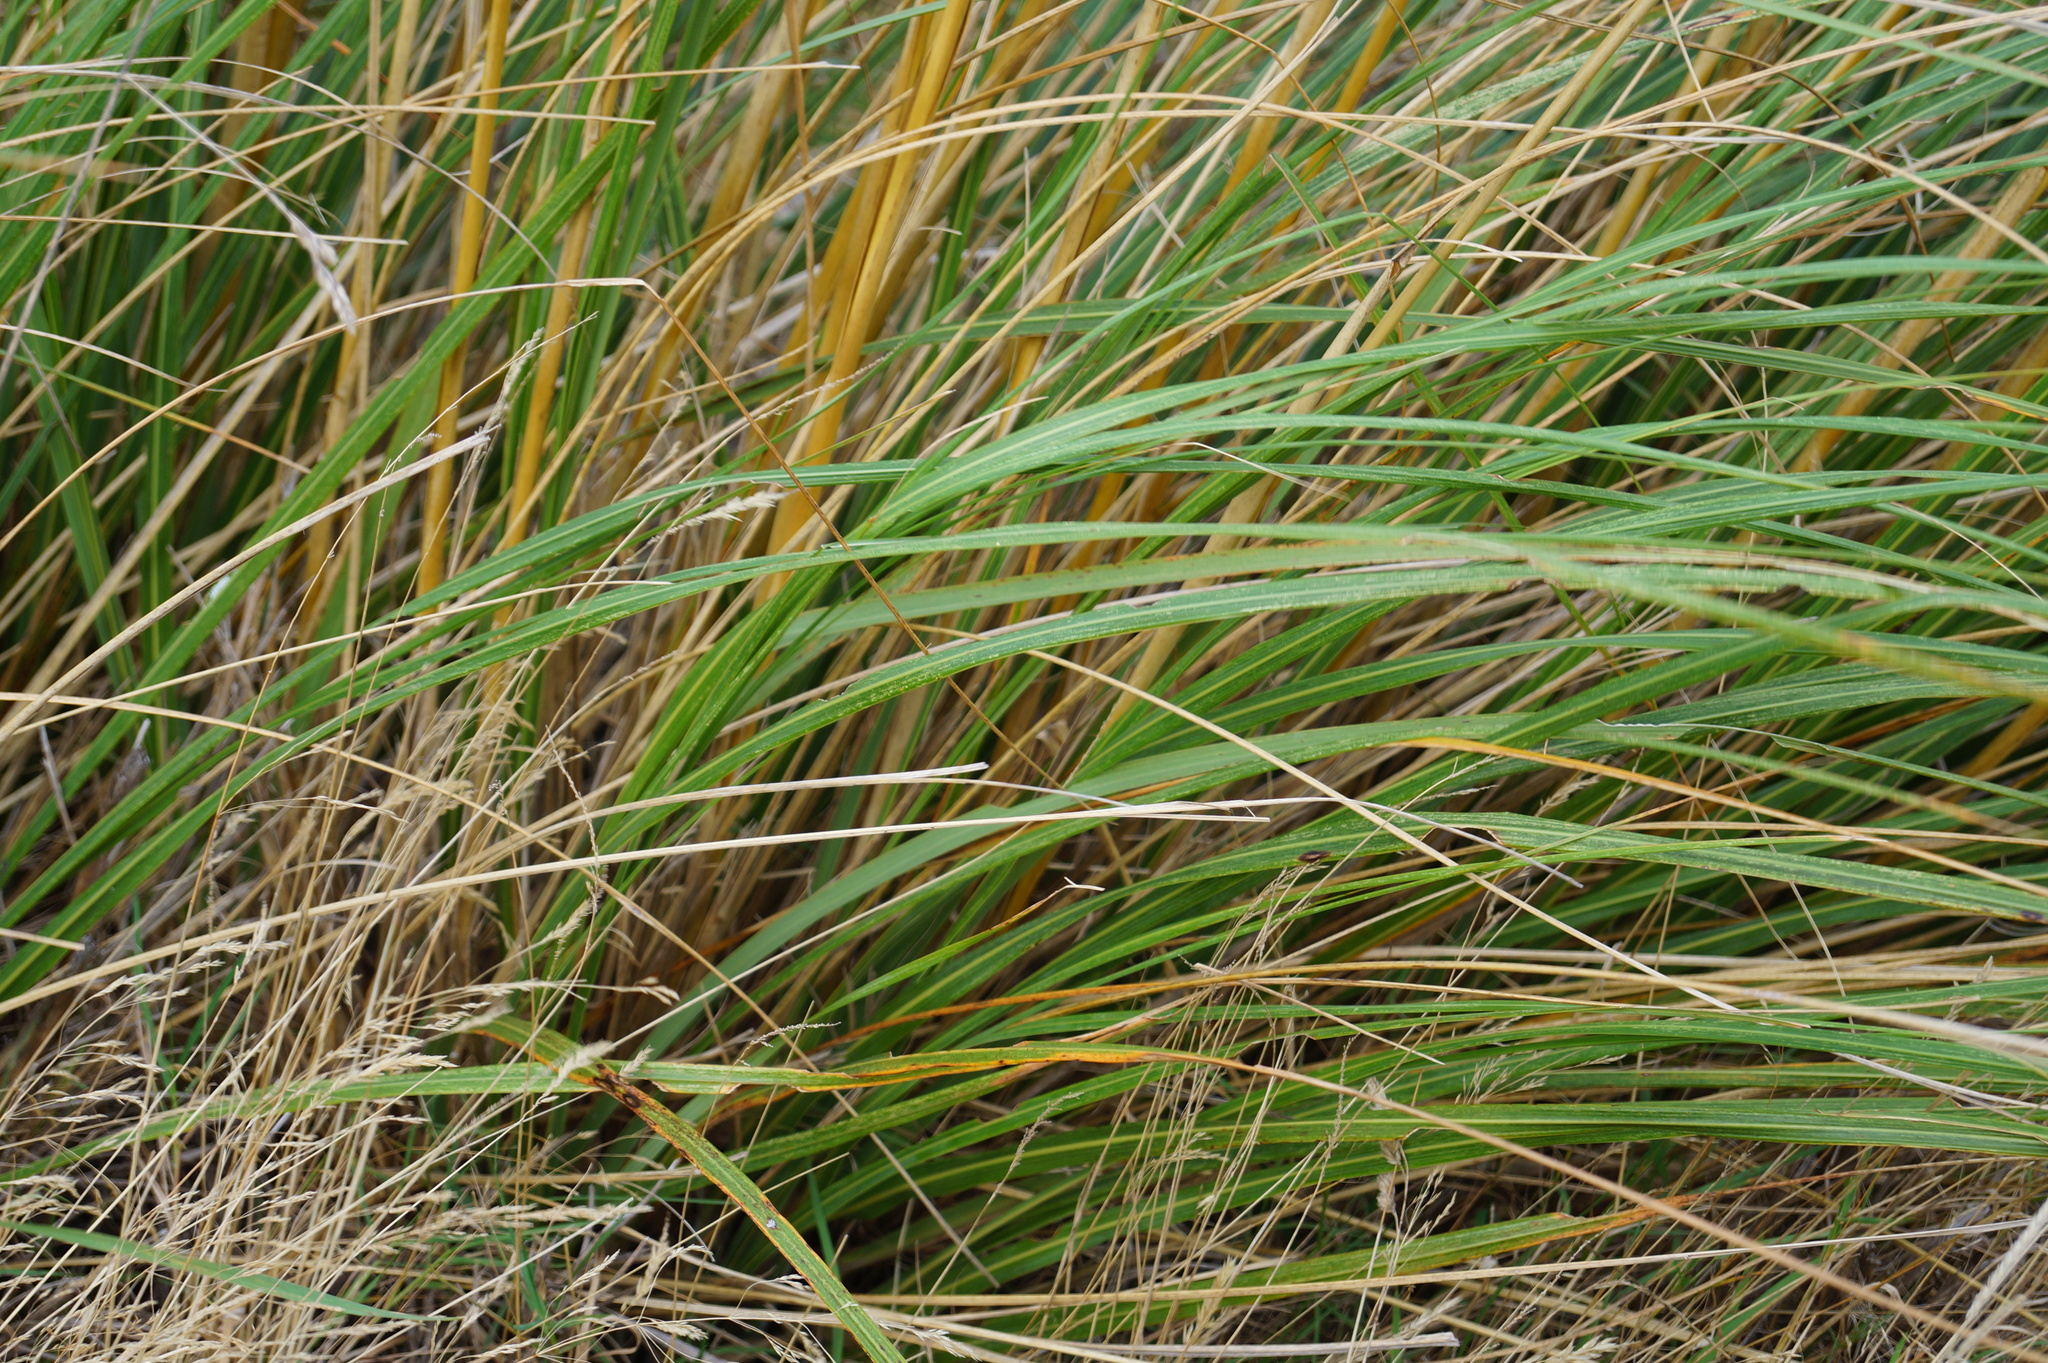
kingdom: Plantae
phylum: Tracheophyta
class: Liliopsida
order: Poales
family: Poaceae
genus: Austroderia
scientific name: Austroderia richardii
